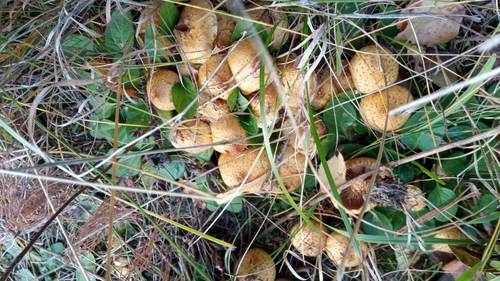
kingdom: Fungi
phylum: Basidiomycota
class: Agaricomycetes
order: Agaricales
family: Strophariaceae
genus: Pholiota
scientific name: Pholiota
